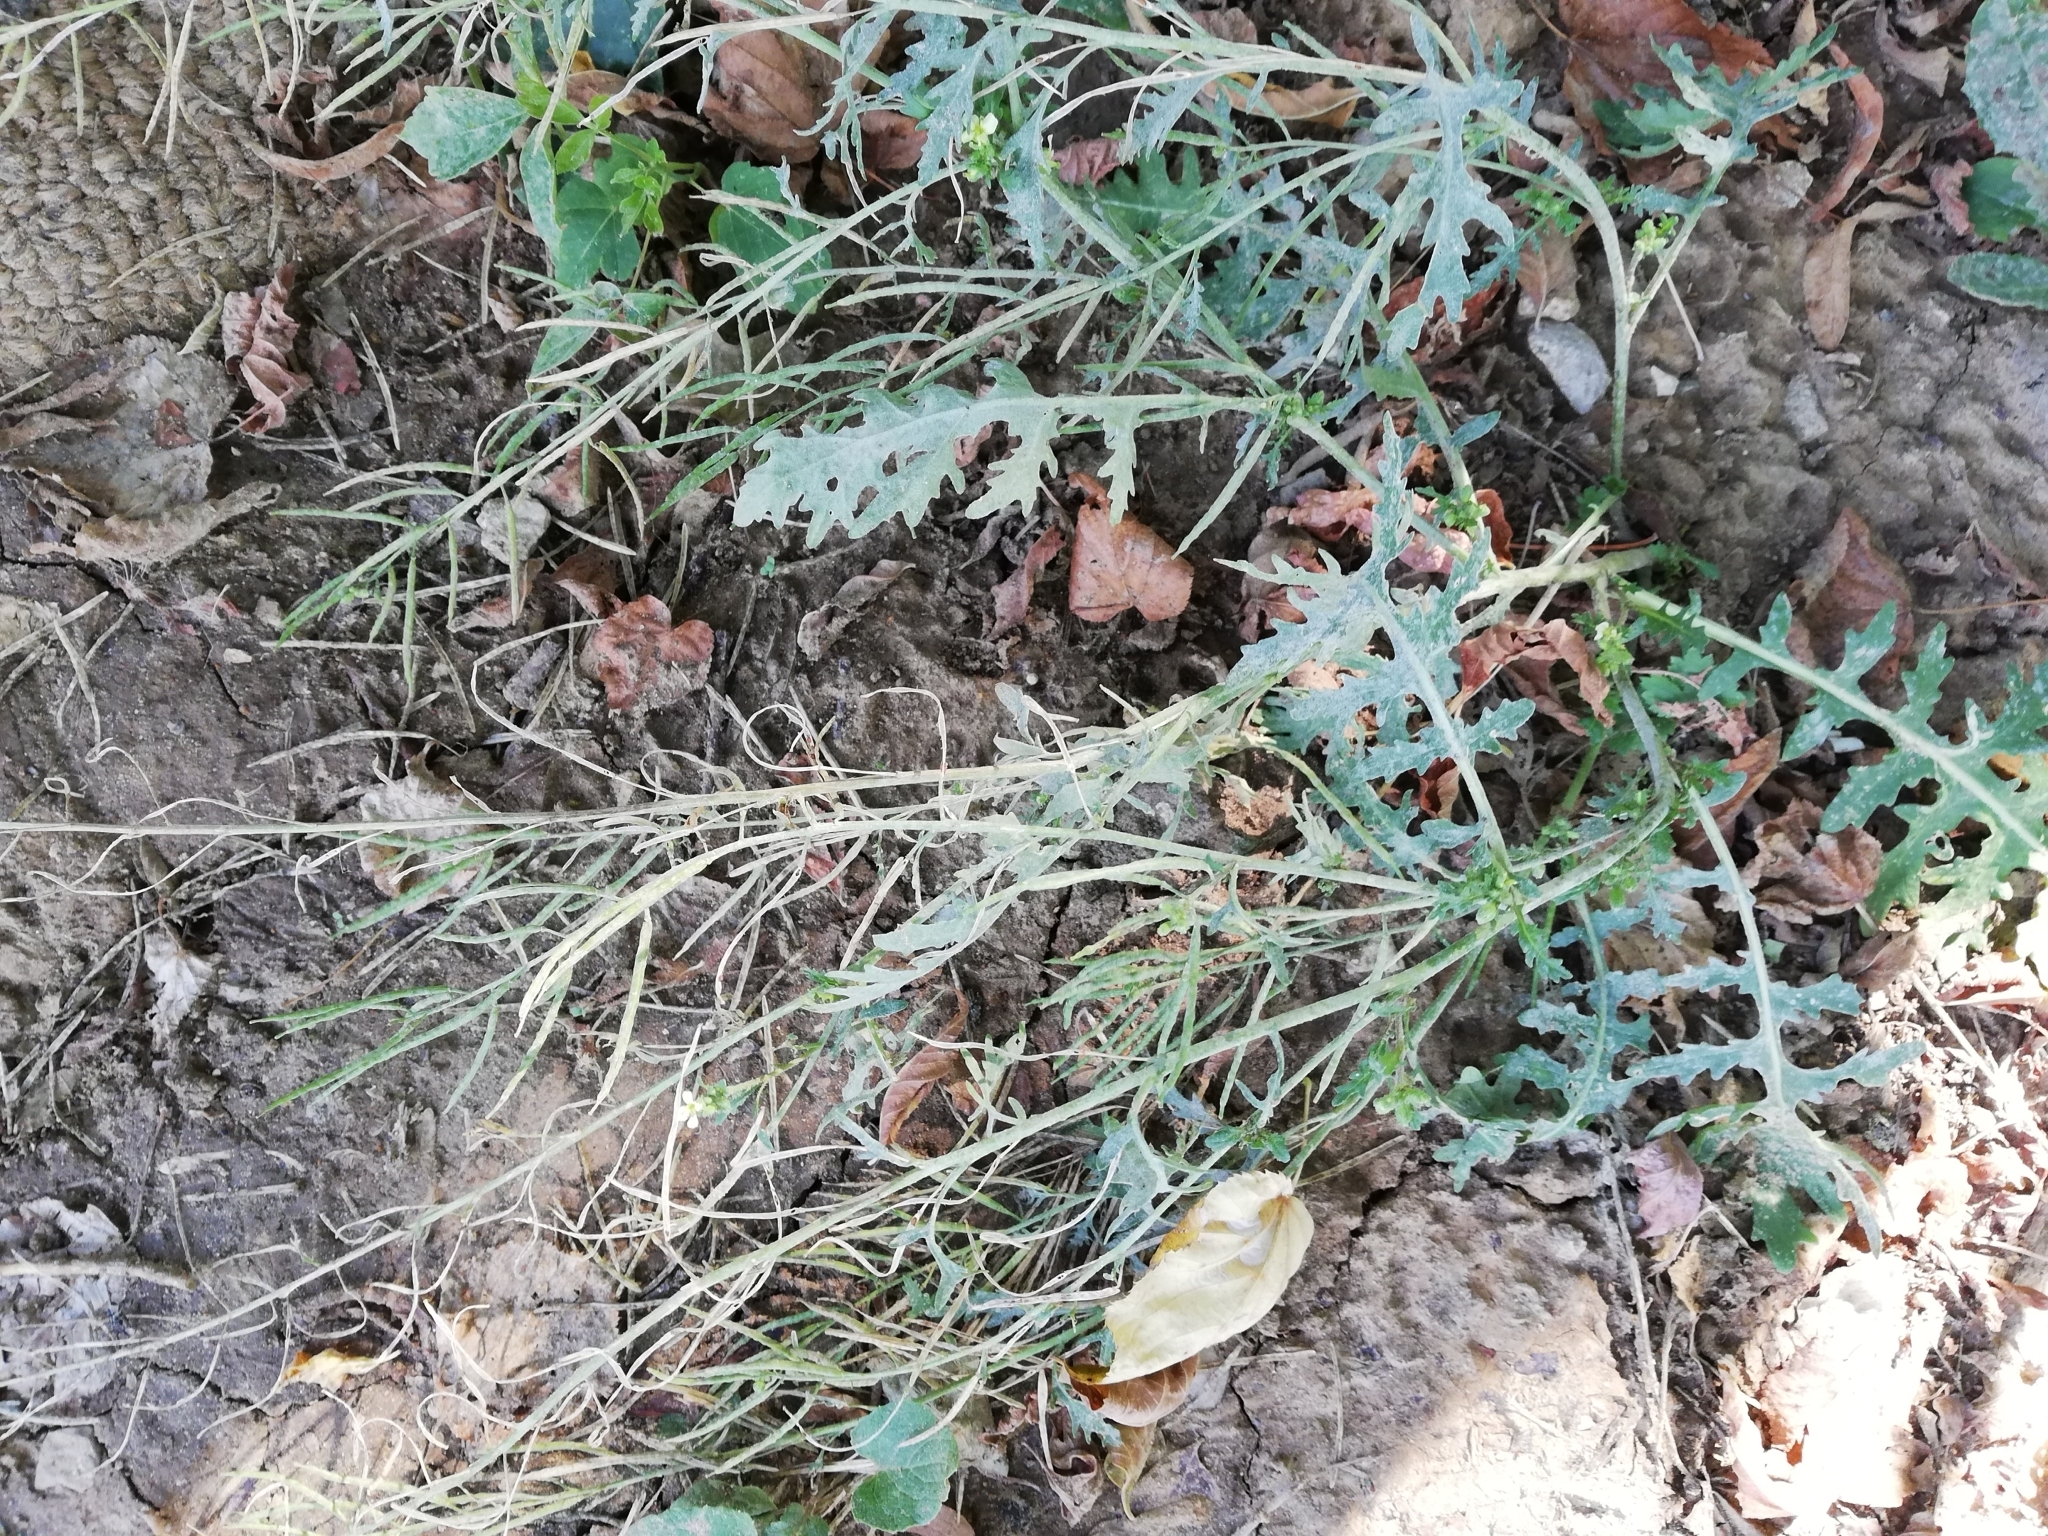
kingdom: Plantae
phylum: Tracheophyta
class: Magnoliopsida
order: Brassicales
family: Brassicaceae
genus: Erucastrum
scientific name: Erucastrum gallicum
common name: Hairy rocket
